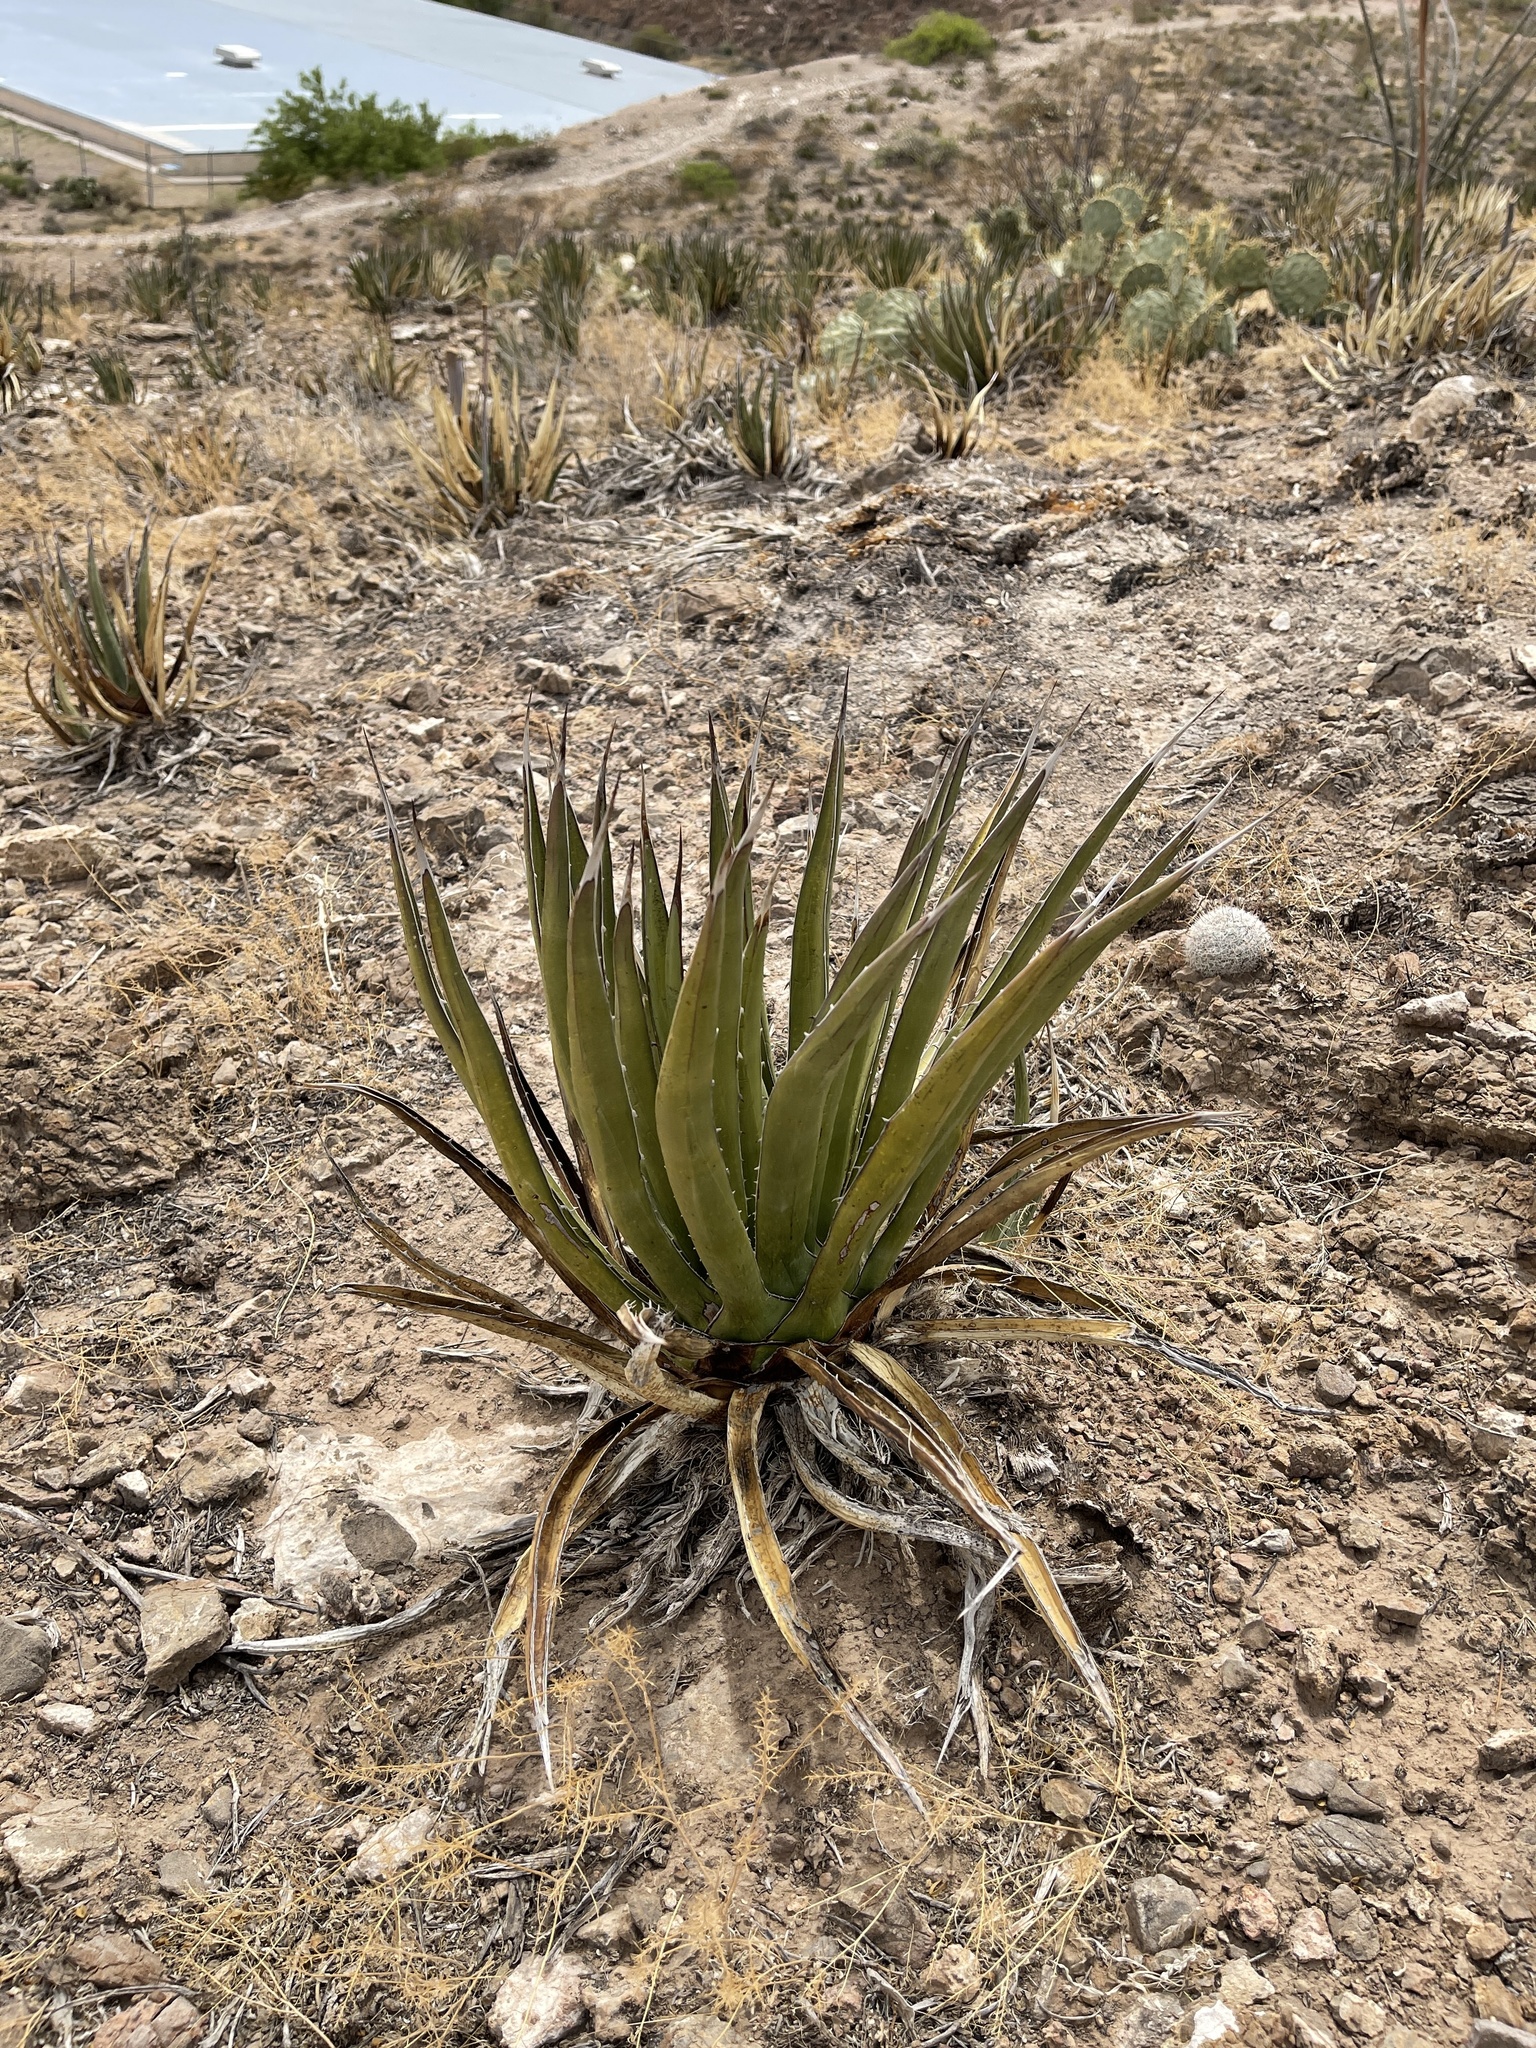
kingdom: Plantae
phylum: Tracheophyta
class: Liliopsida
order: Asparagales
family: Asparagaceae
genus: Agave
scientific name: Agave lechuguilla
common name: Lecheguilla agave
